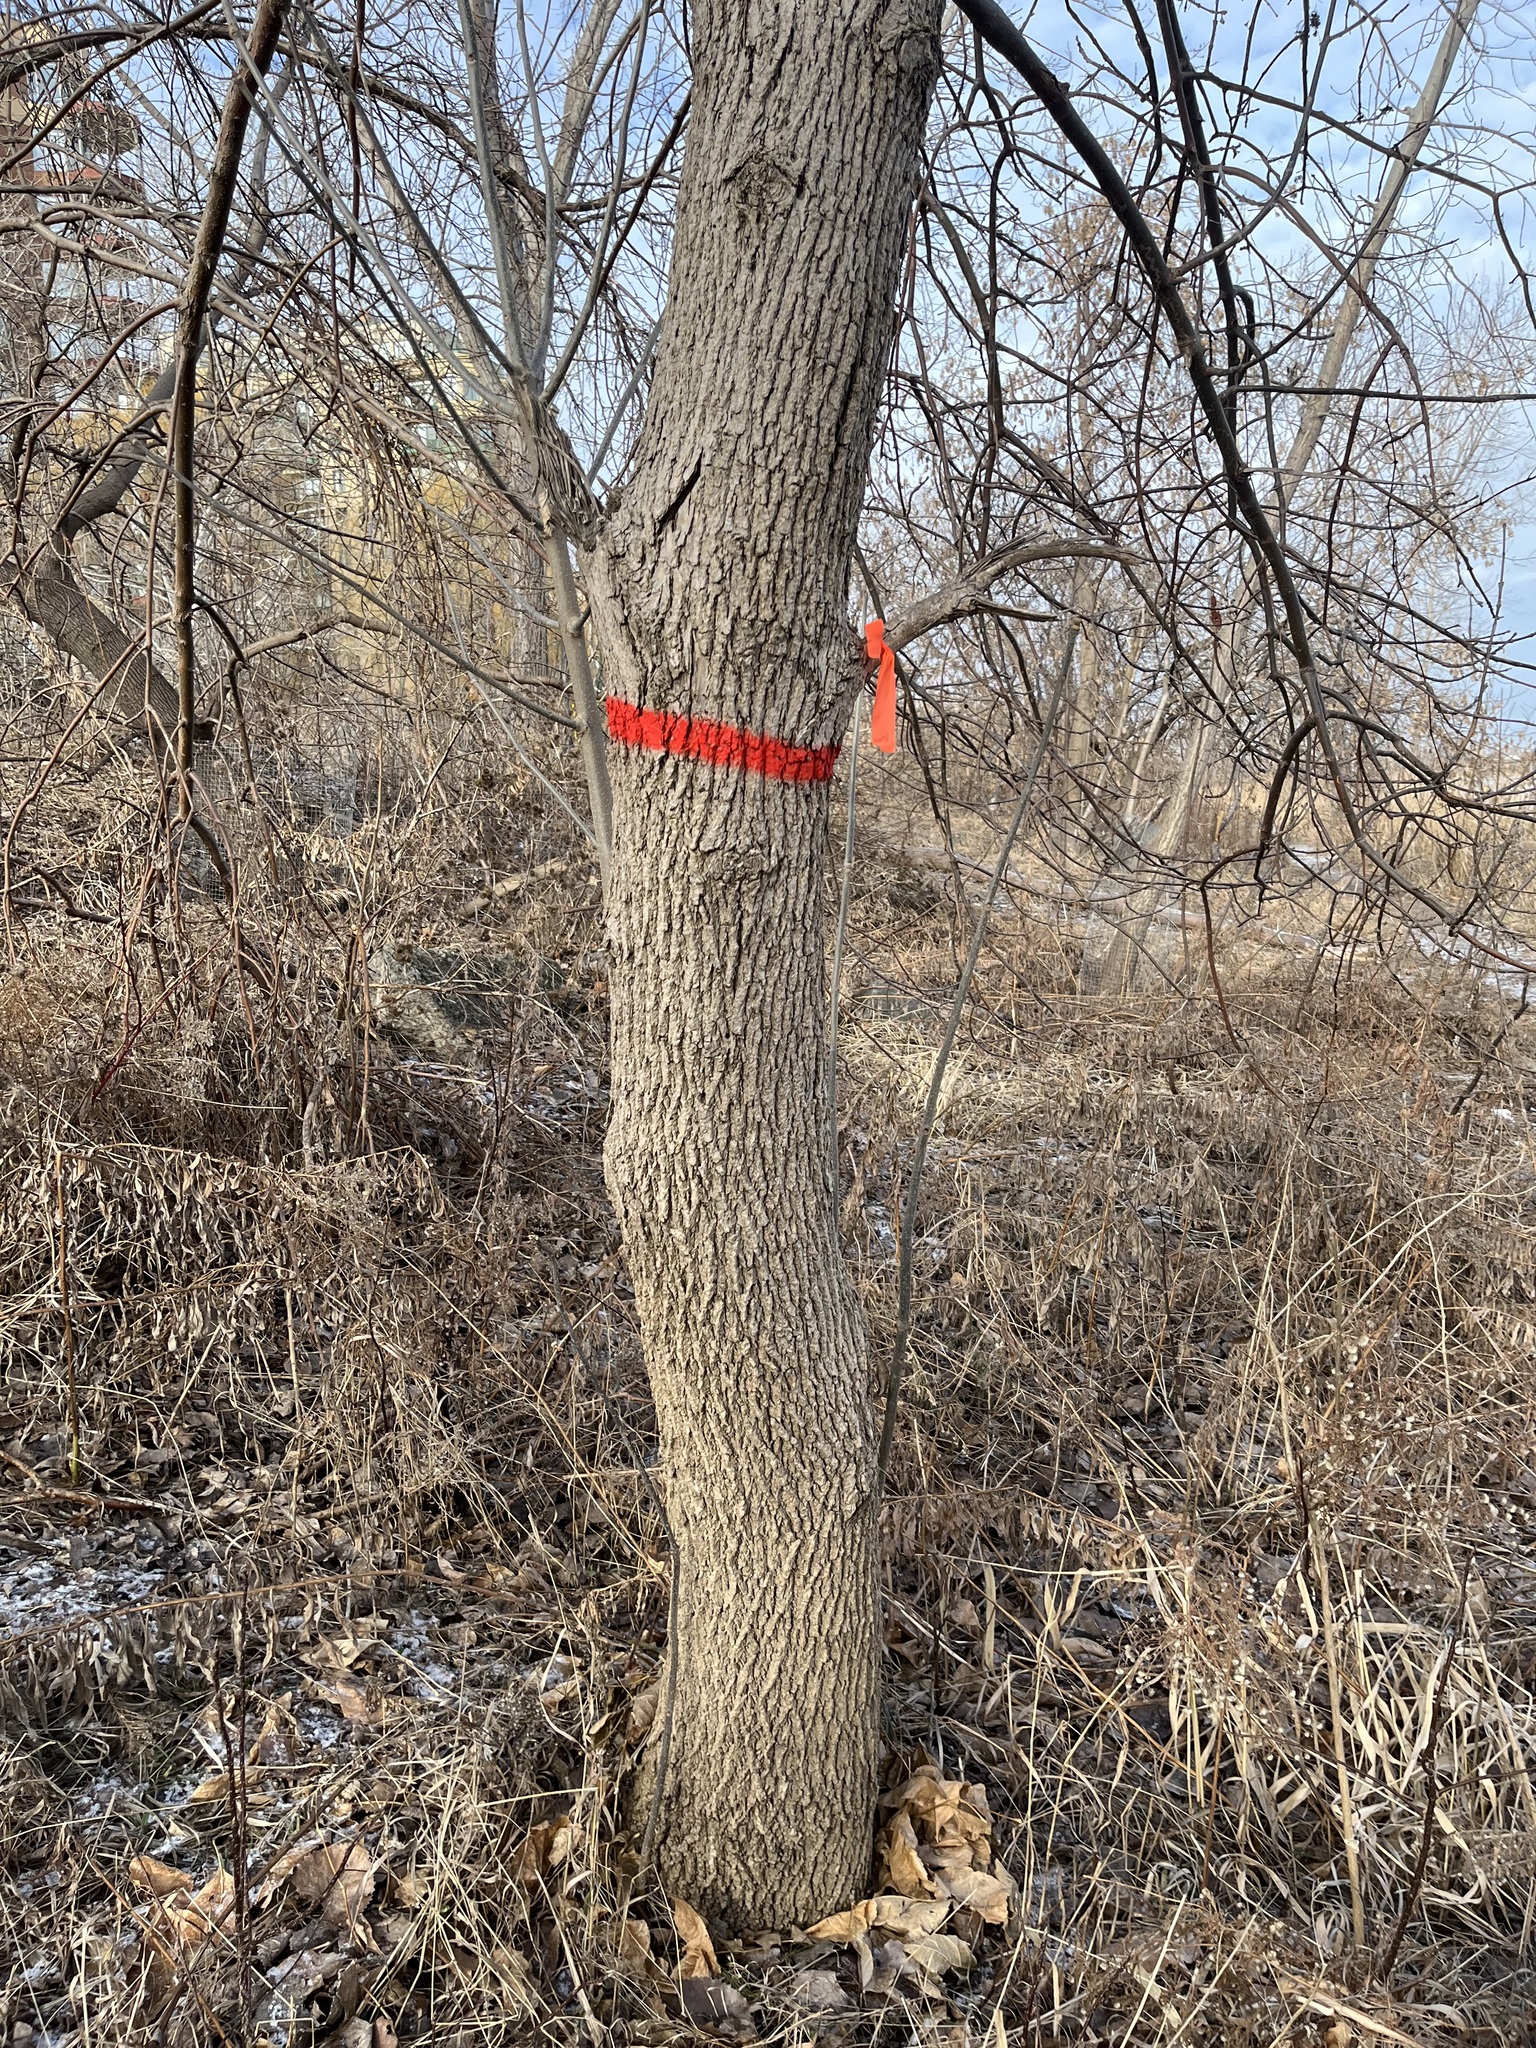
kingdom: Plantae
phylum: Tracheophyta
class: Magnoliopsida
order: Lamiales
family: Oleaceae
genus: Fraxinus
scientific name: Fraxinus pennsylvanica
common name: Green ash
